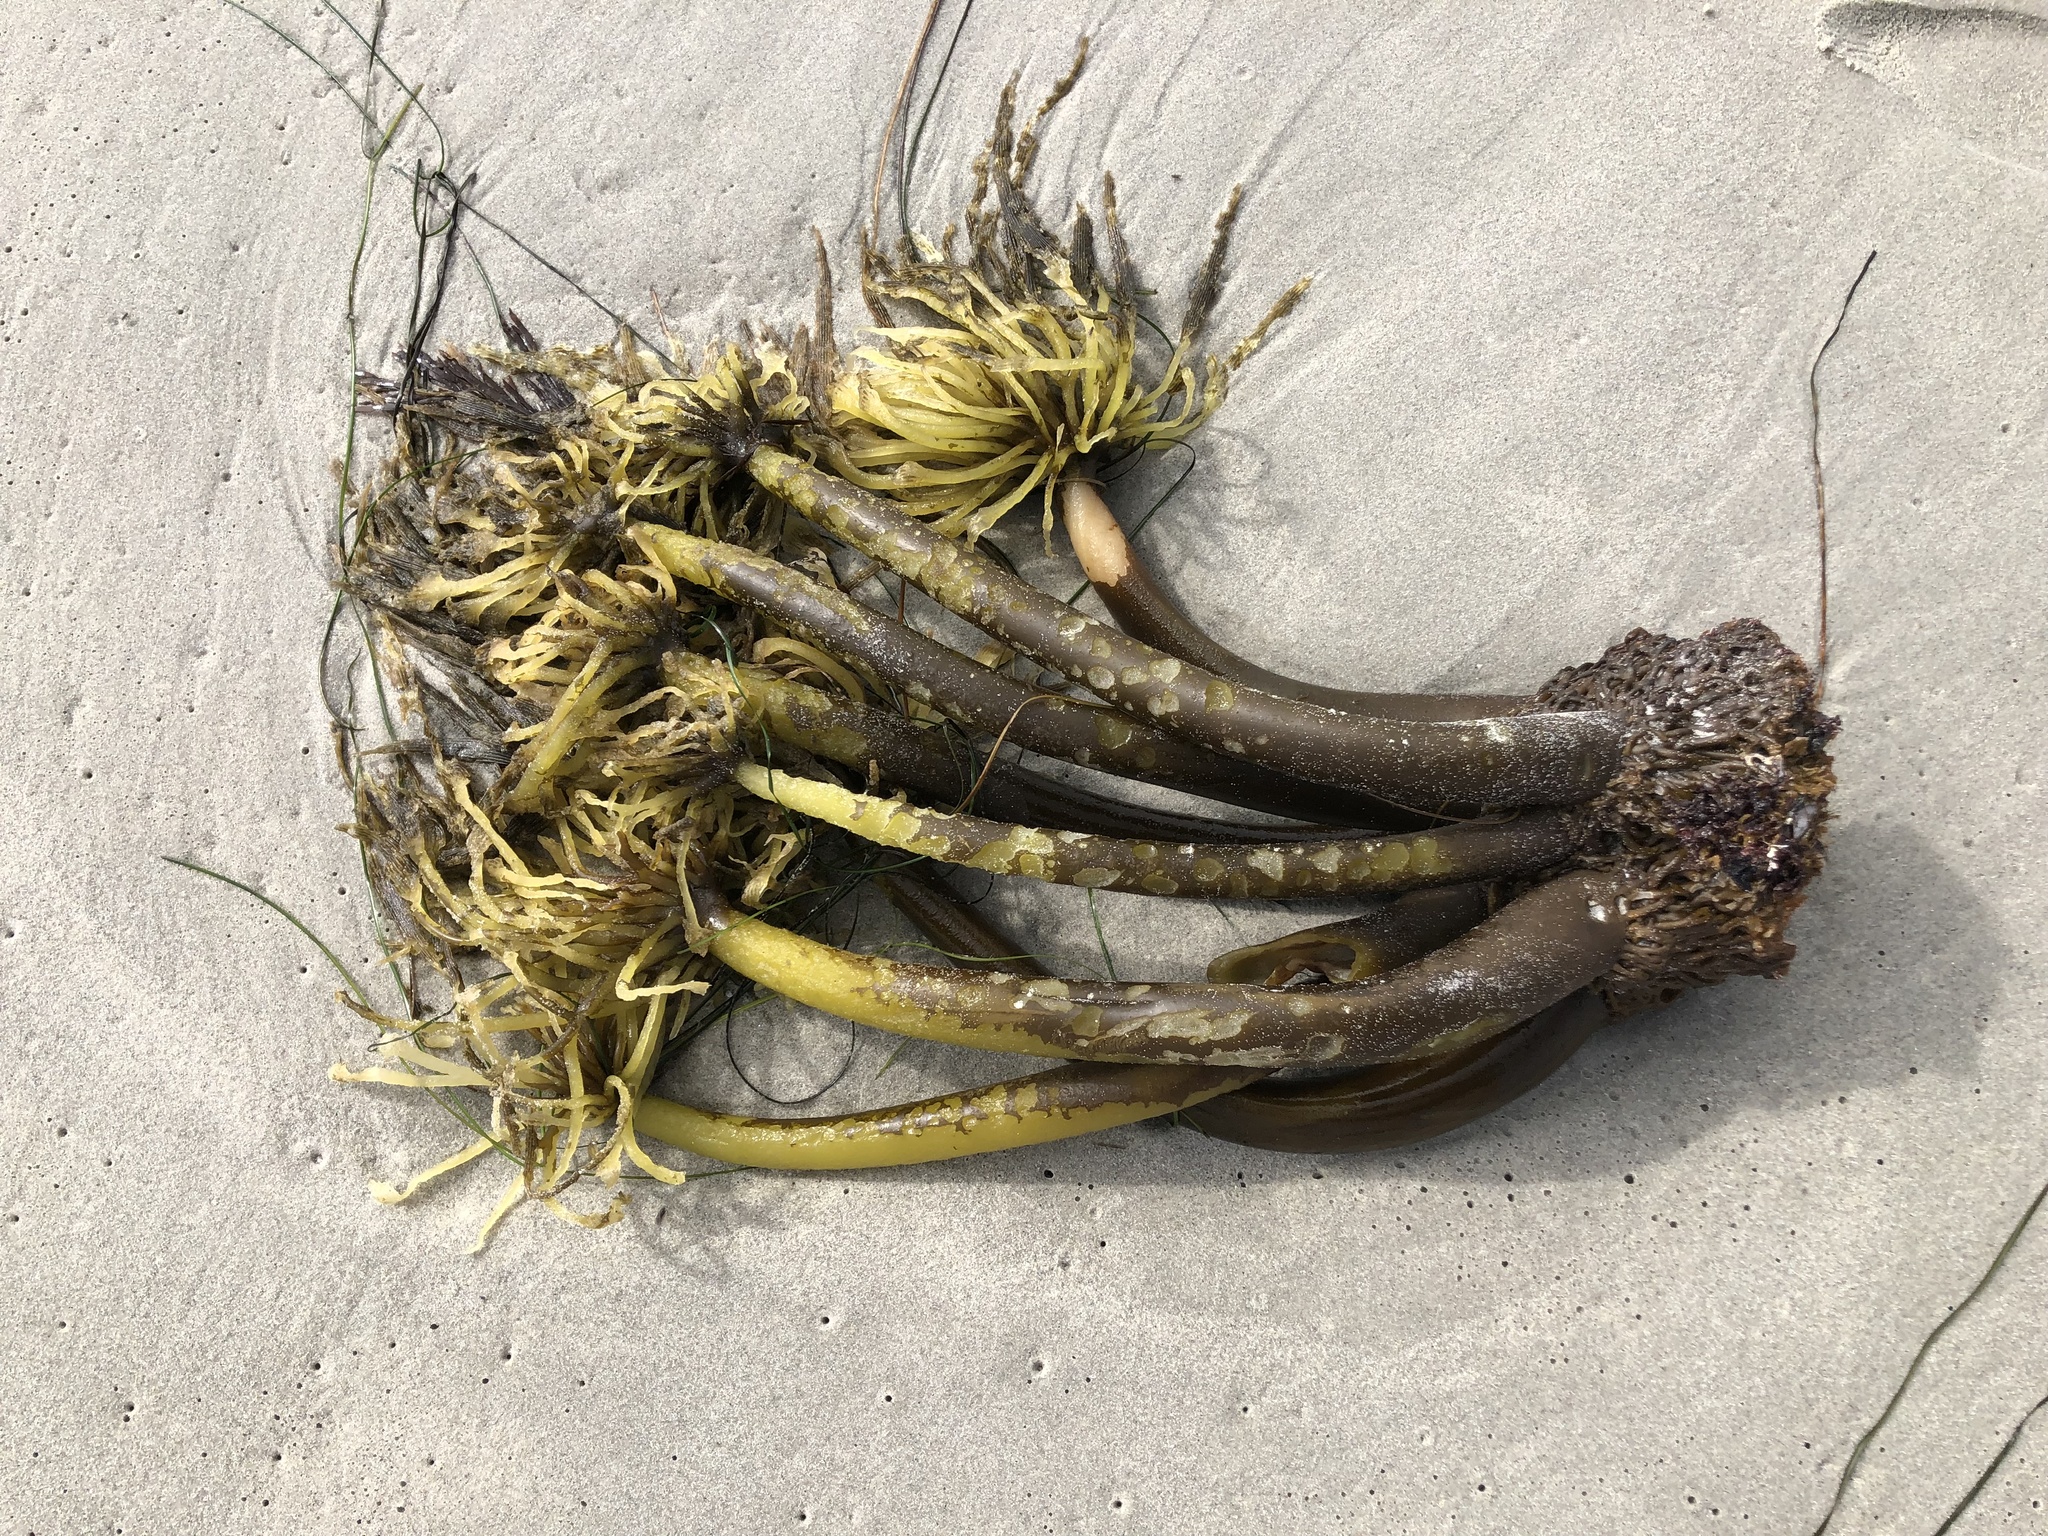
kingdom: Chromista
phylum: Ochrophyta
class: Phaeophyceae
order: Laminariales
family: Laminariaceae
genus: Postelsia
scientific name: Postelsia palmiformis
